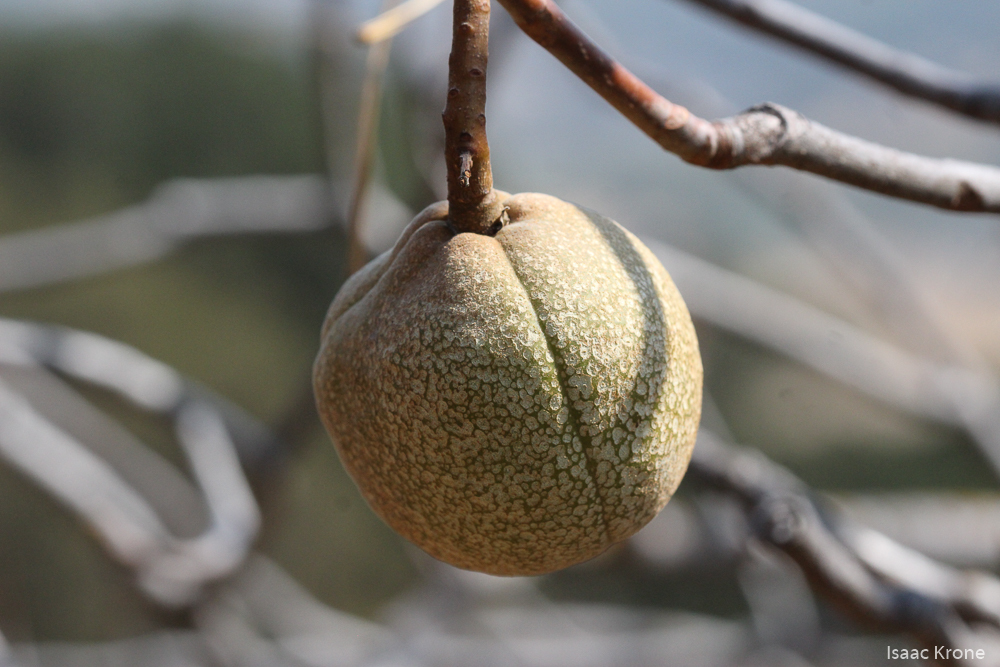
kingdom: Plantae
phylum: Tracheophyta
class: Magnoliopsida
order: Sapindales
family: Sapindaceae
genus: Aesculus
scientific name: Aesculus californica
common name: California buckeye
